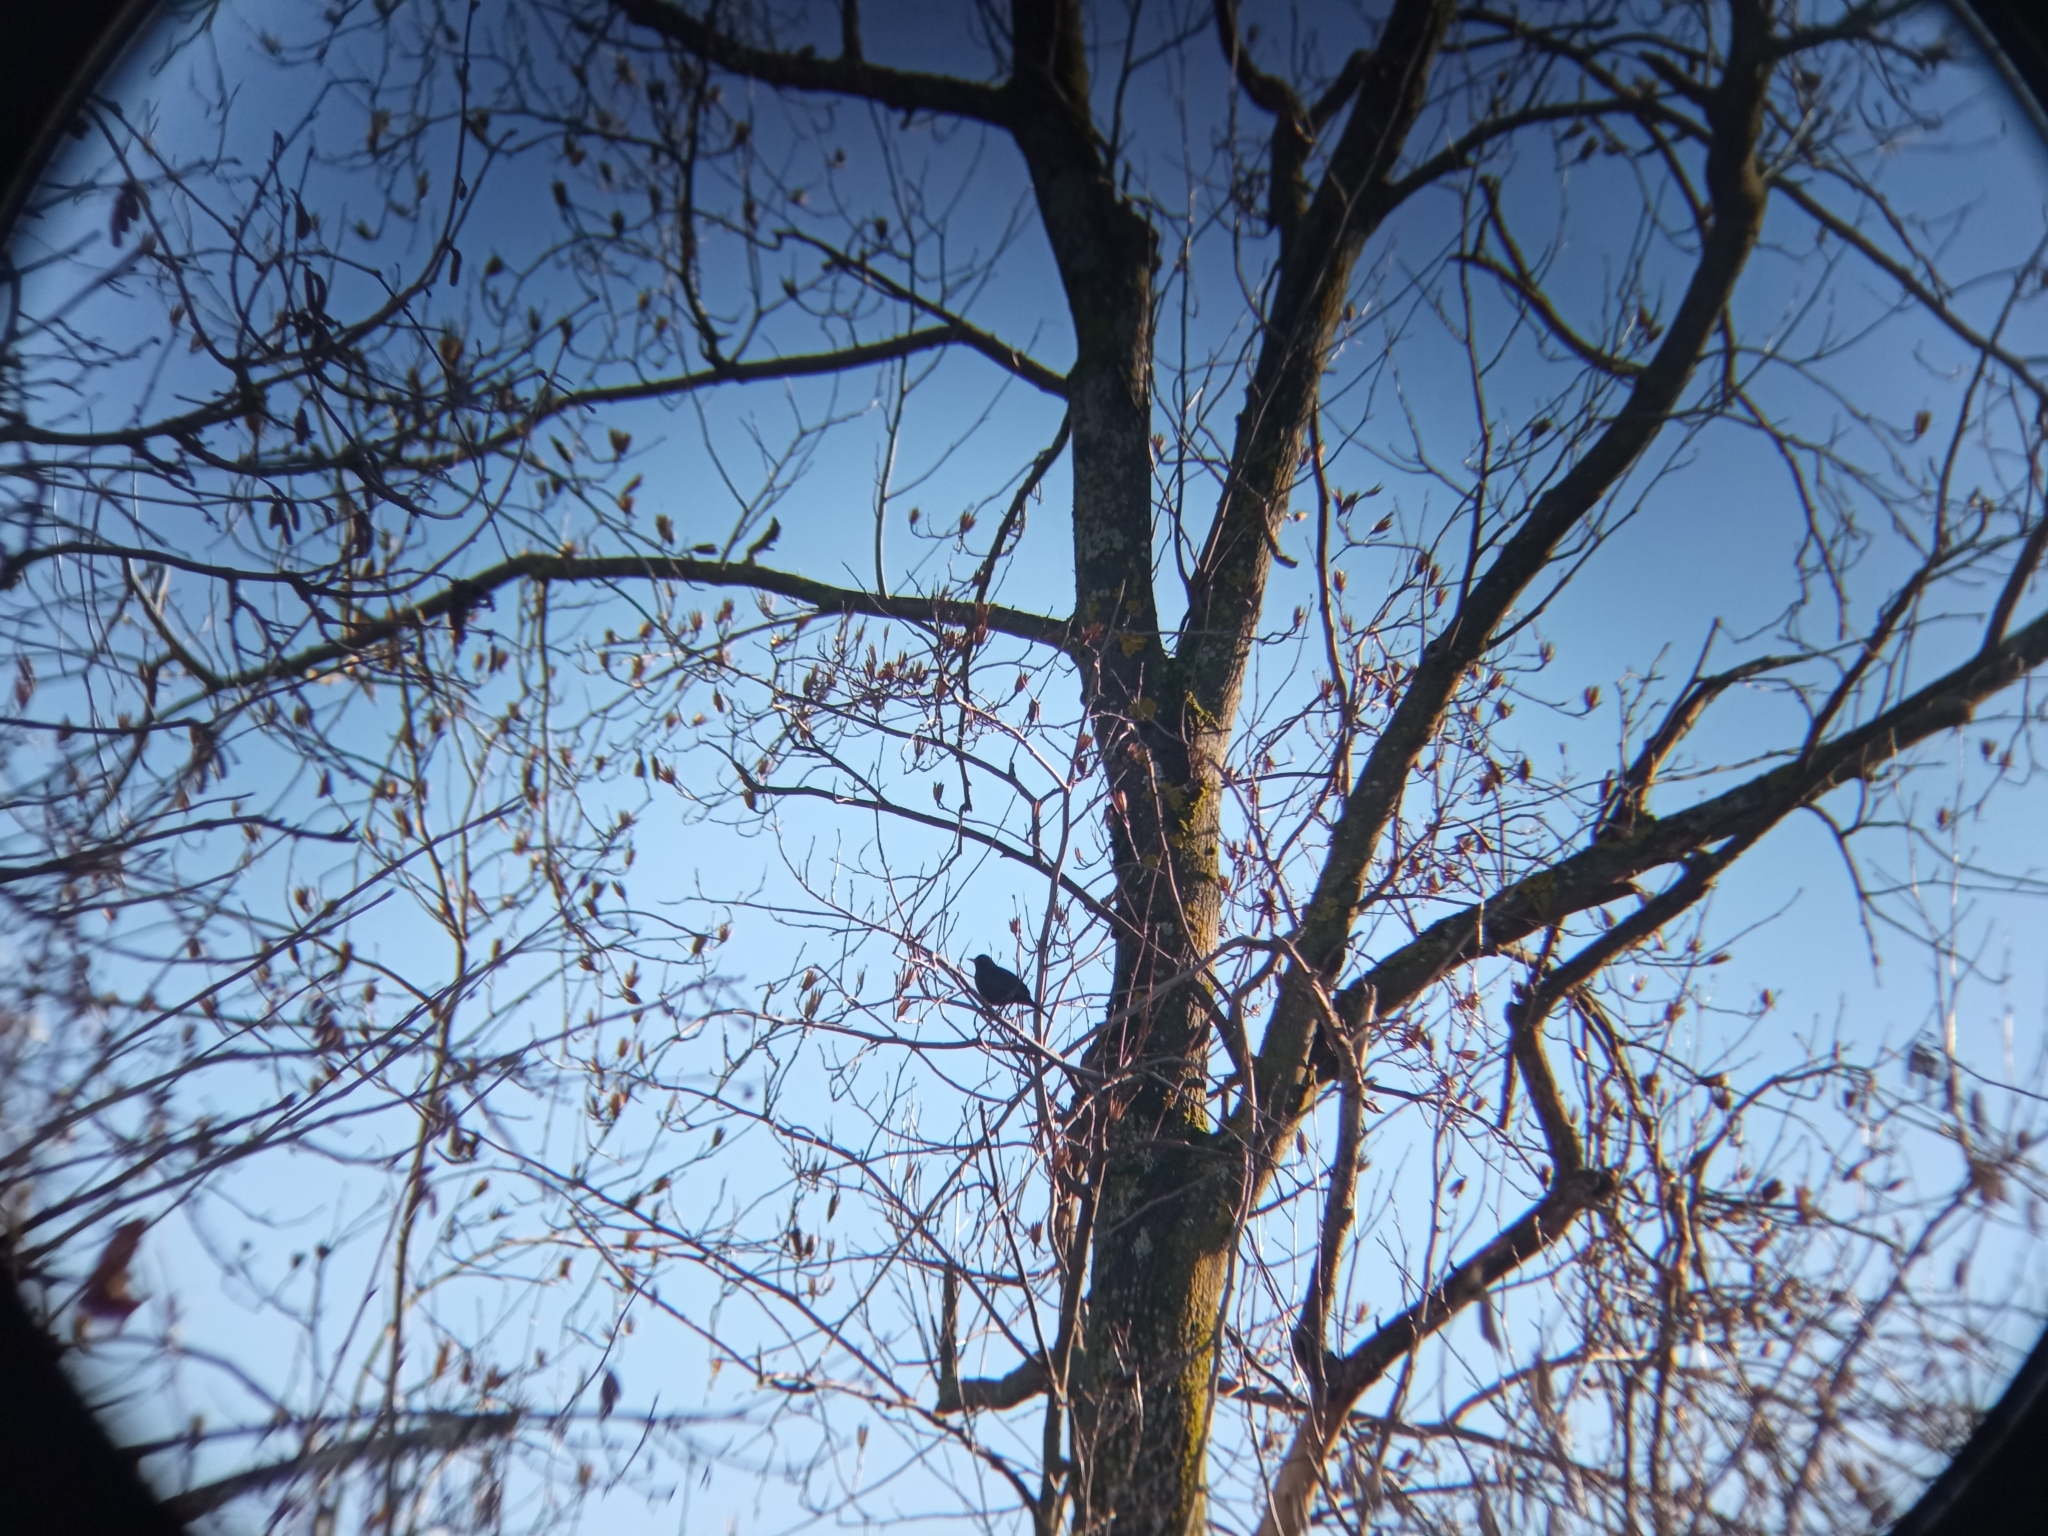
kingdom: Animalia
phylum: Chordata
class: Aves
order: Passeriformes
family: Turdidae
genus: Turdus
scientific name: Turdus merula
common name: Common blackbird
